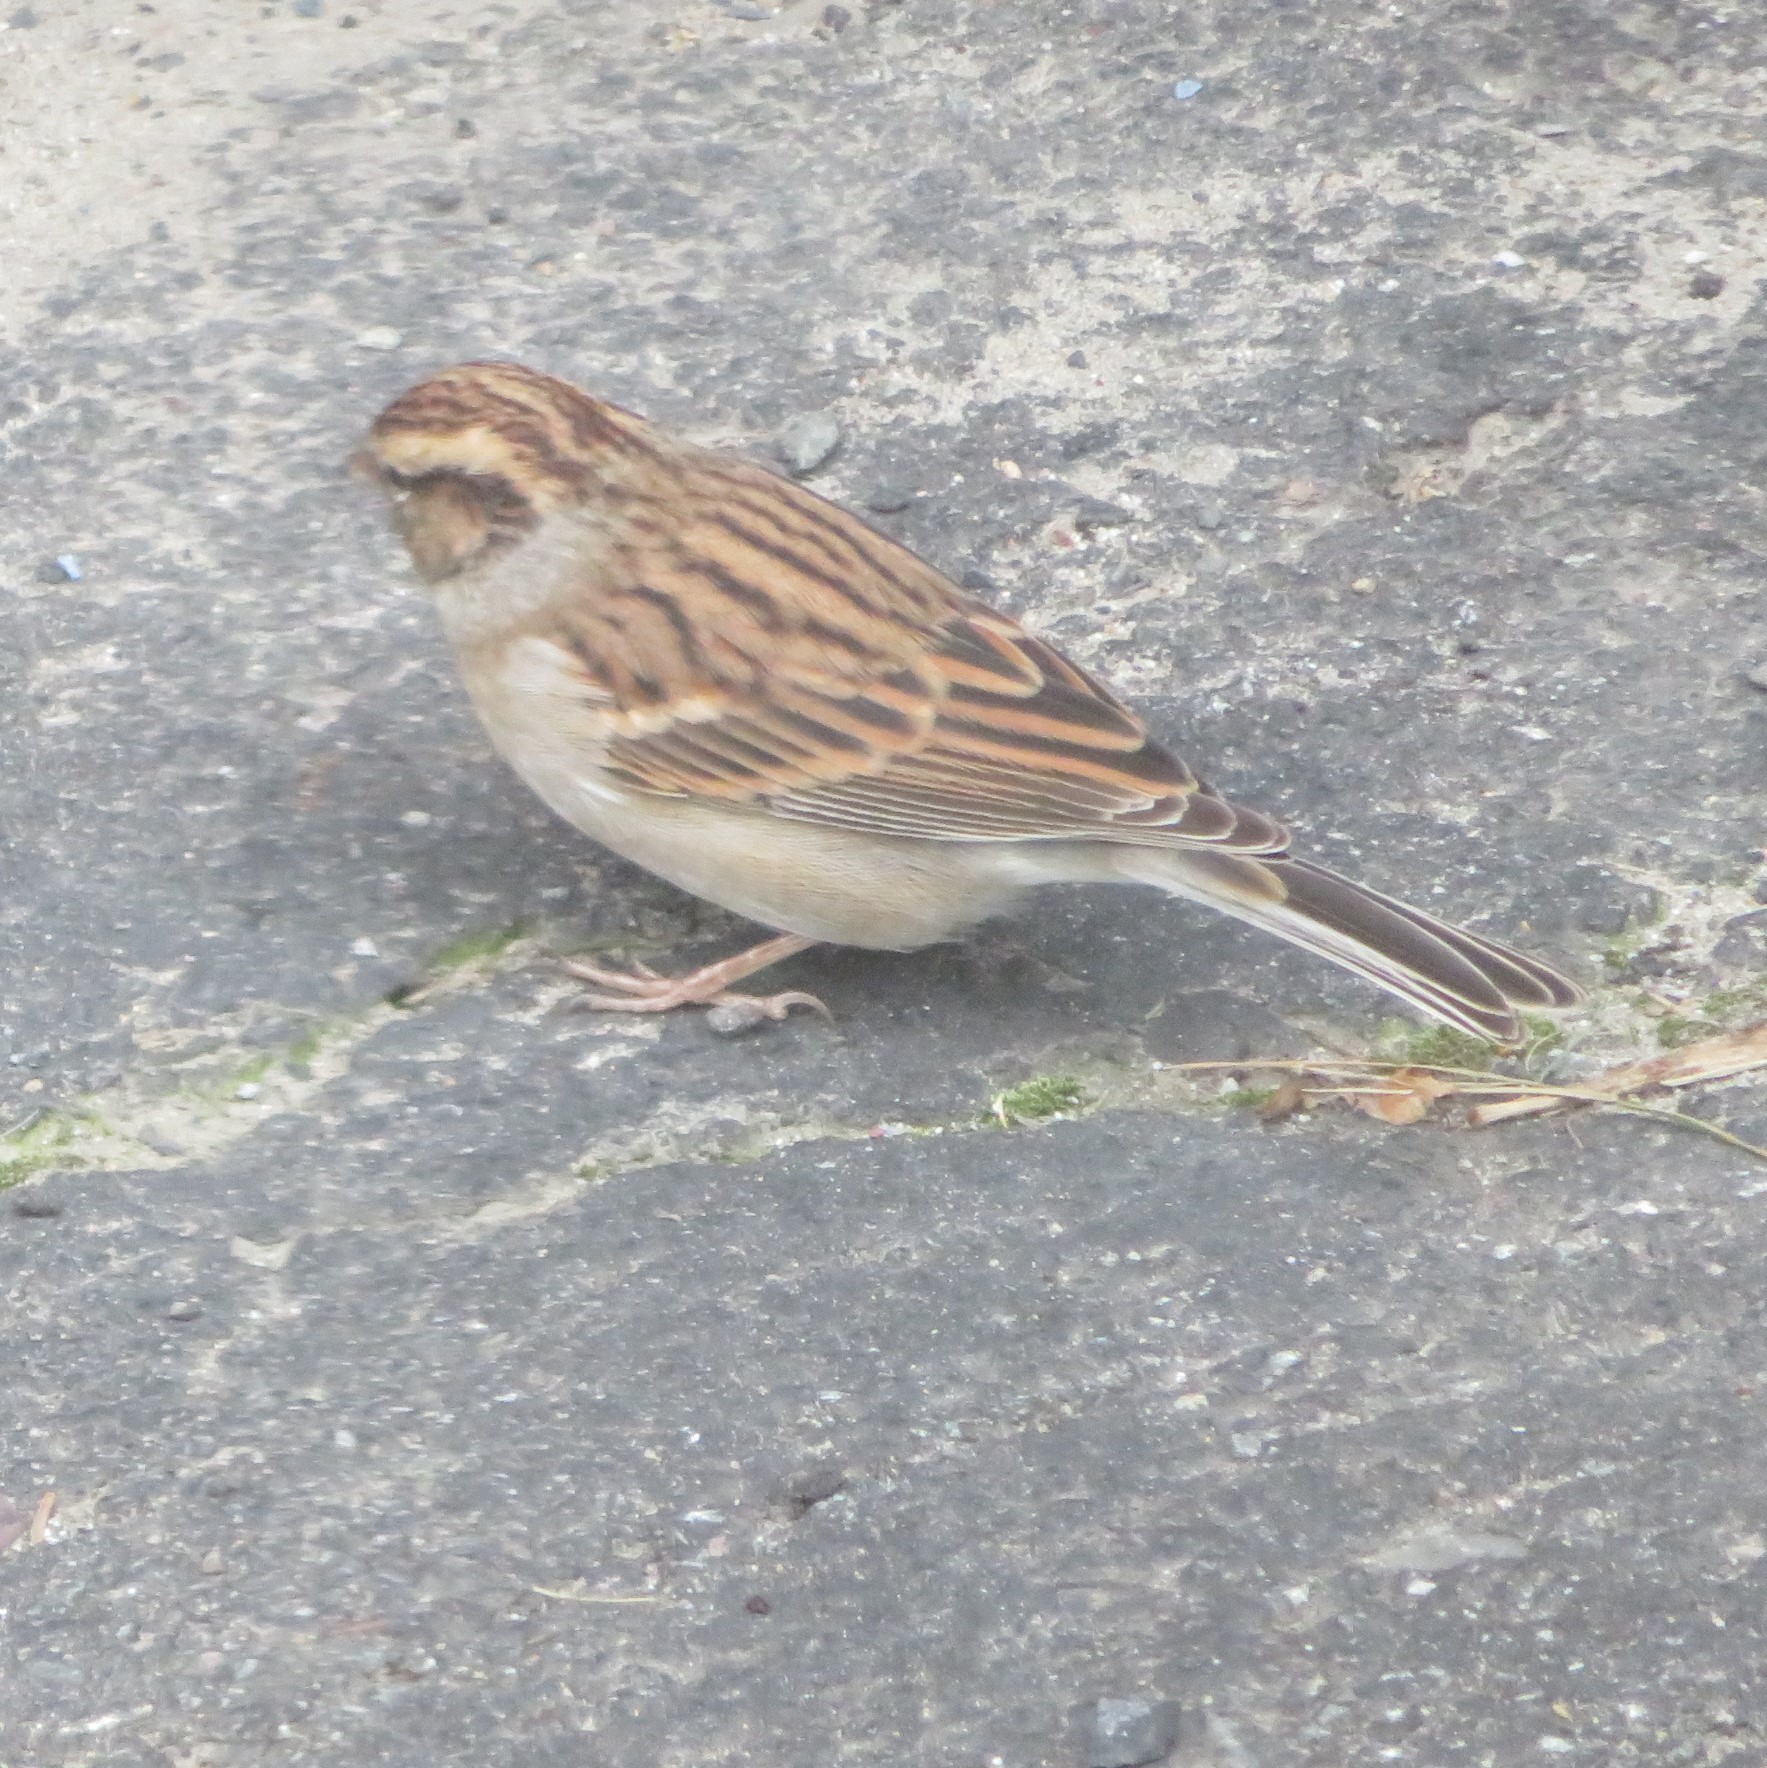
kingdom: Animalia
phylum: Chordata
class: Aves
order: Passeriformes
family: Passerellidae
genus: Spizella
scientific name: Spizella passerina
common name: Chipping sparrow
